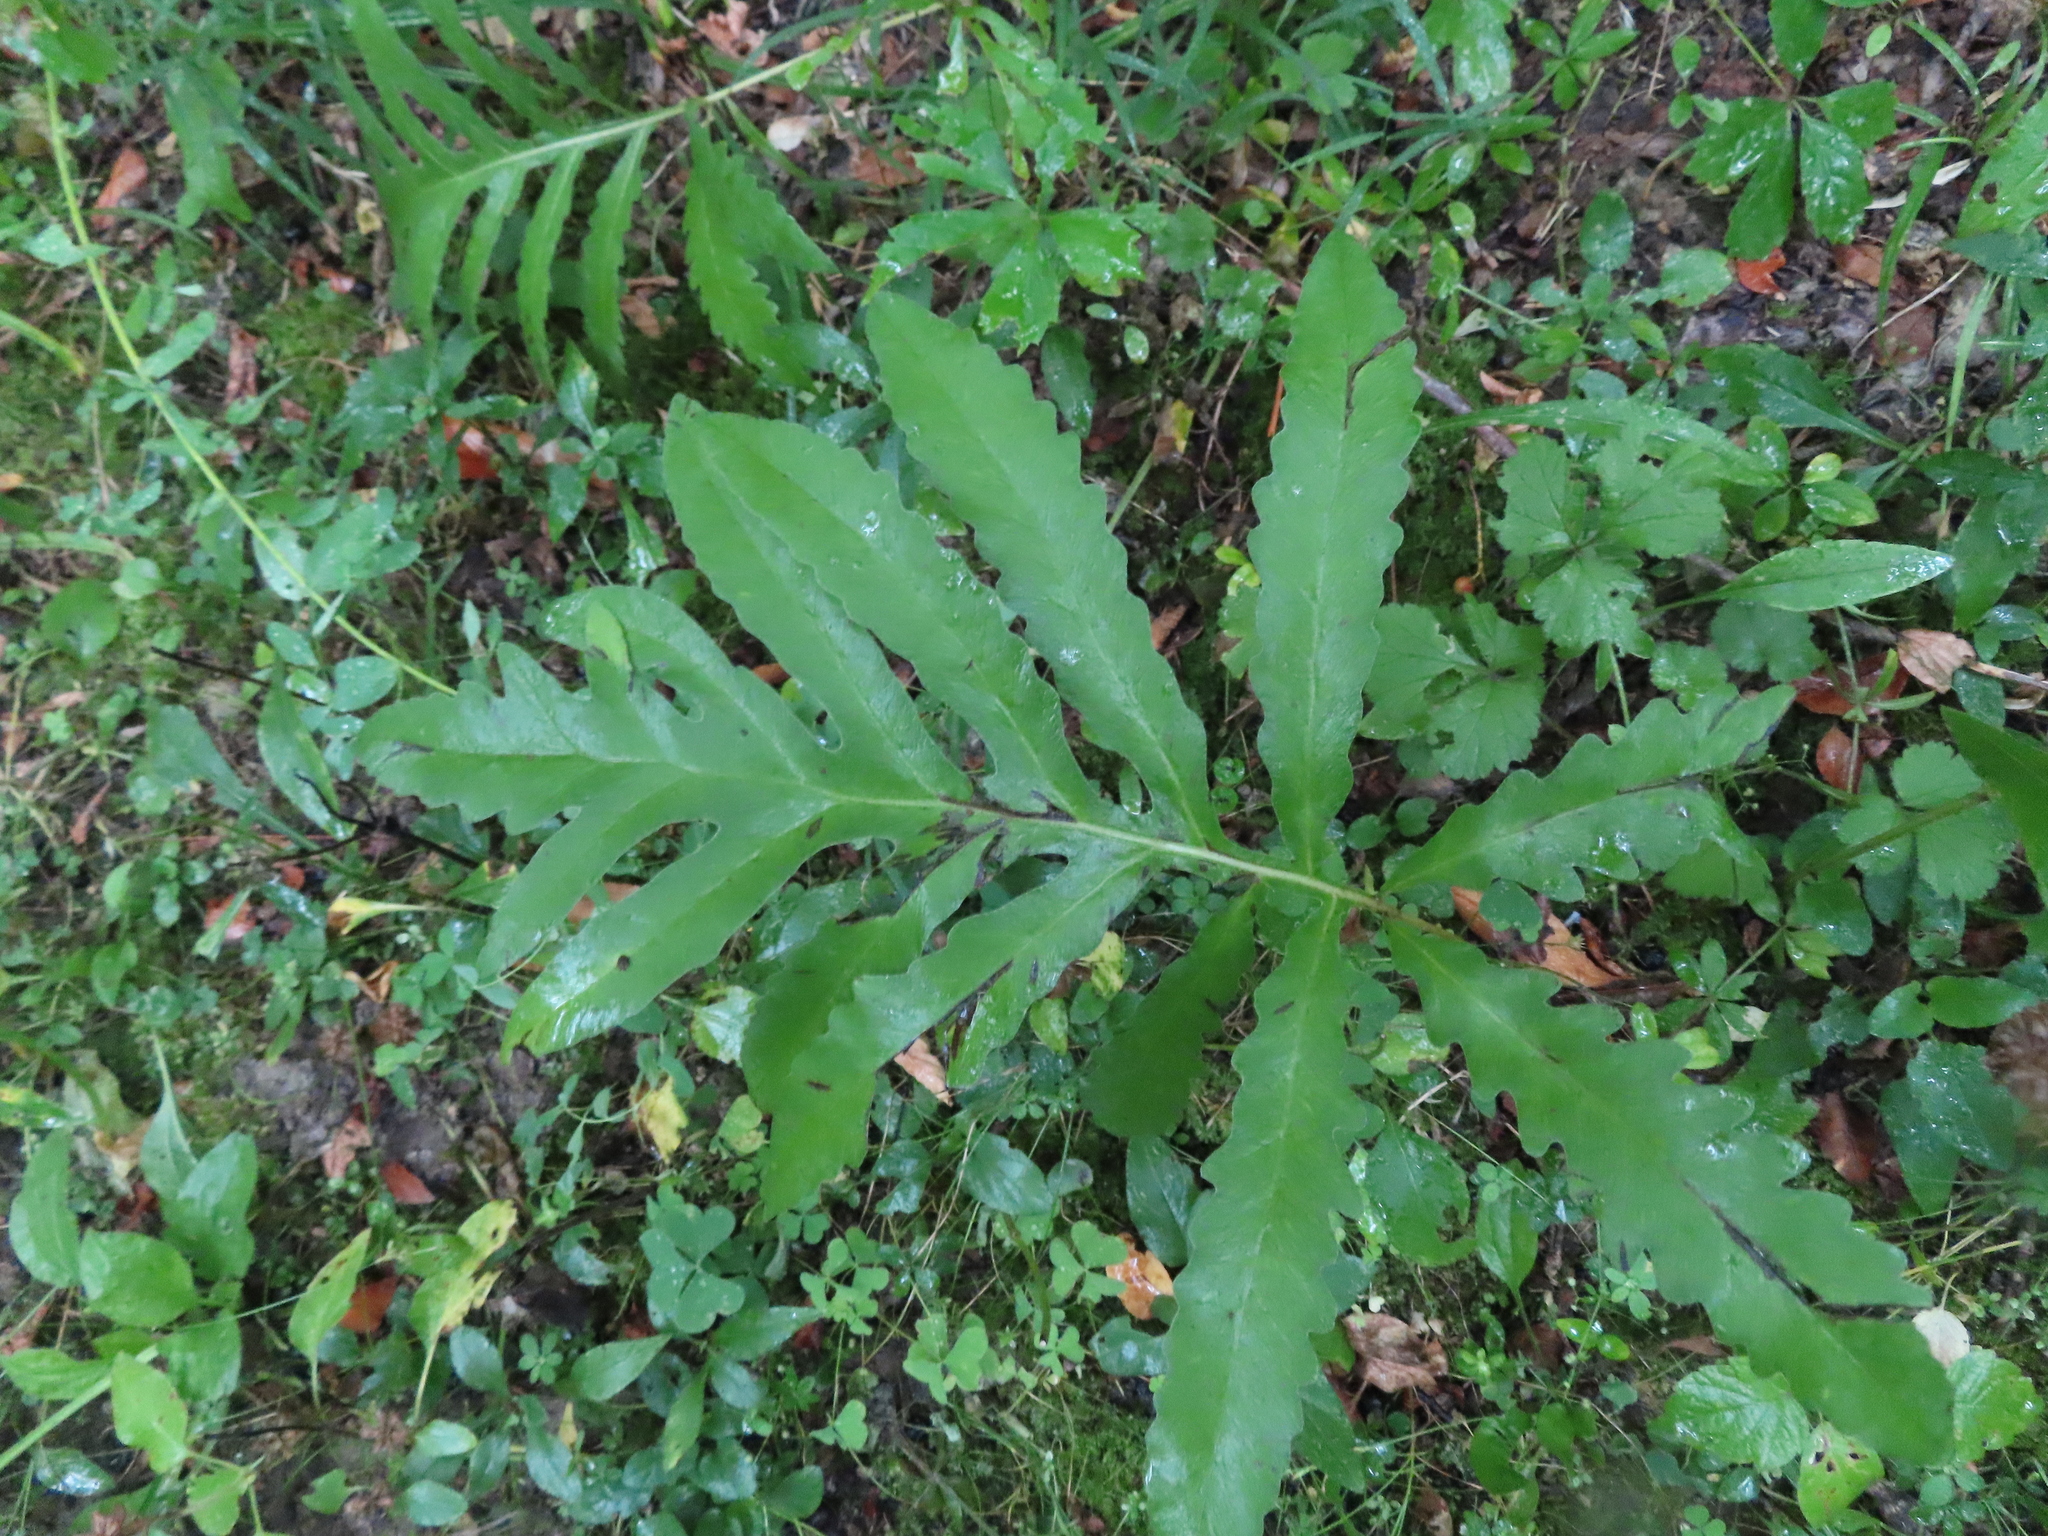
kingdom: Plantae
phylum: Tracheophyta
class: Polypodiopsida
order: Polypodiales
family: Onocleaceae
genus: Onoclea
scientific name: Onoclea sensibilis
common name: Sensitive fern
